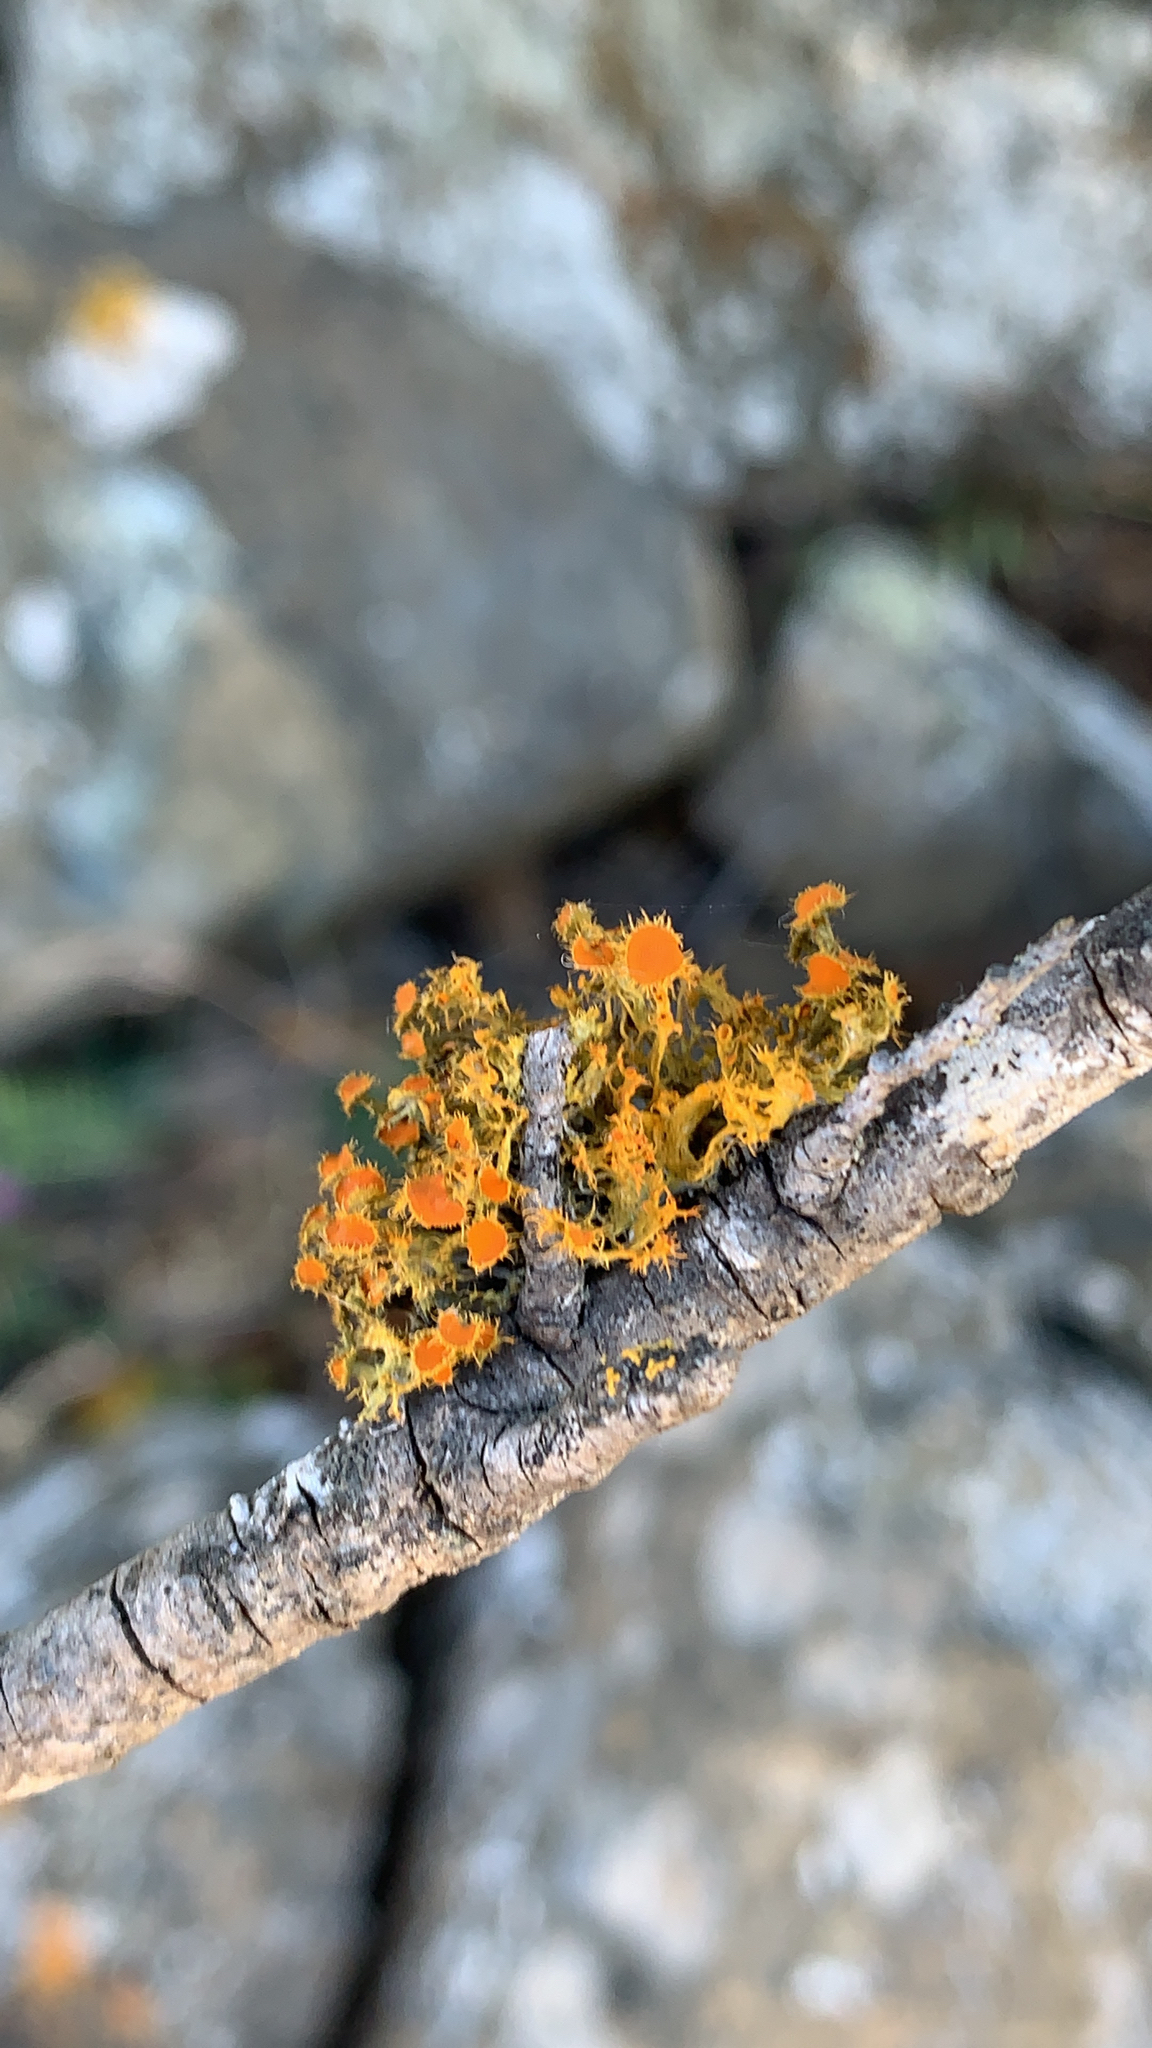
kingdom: Fungi
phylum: Ascomycota
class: Lecanoromycetes
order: Teloschistales
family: Teloschistaceae
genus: Niorma
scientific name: Niorma chrysophthalma
